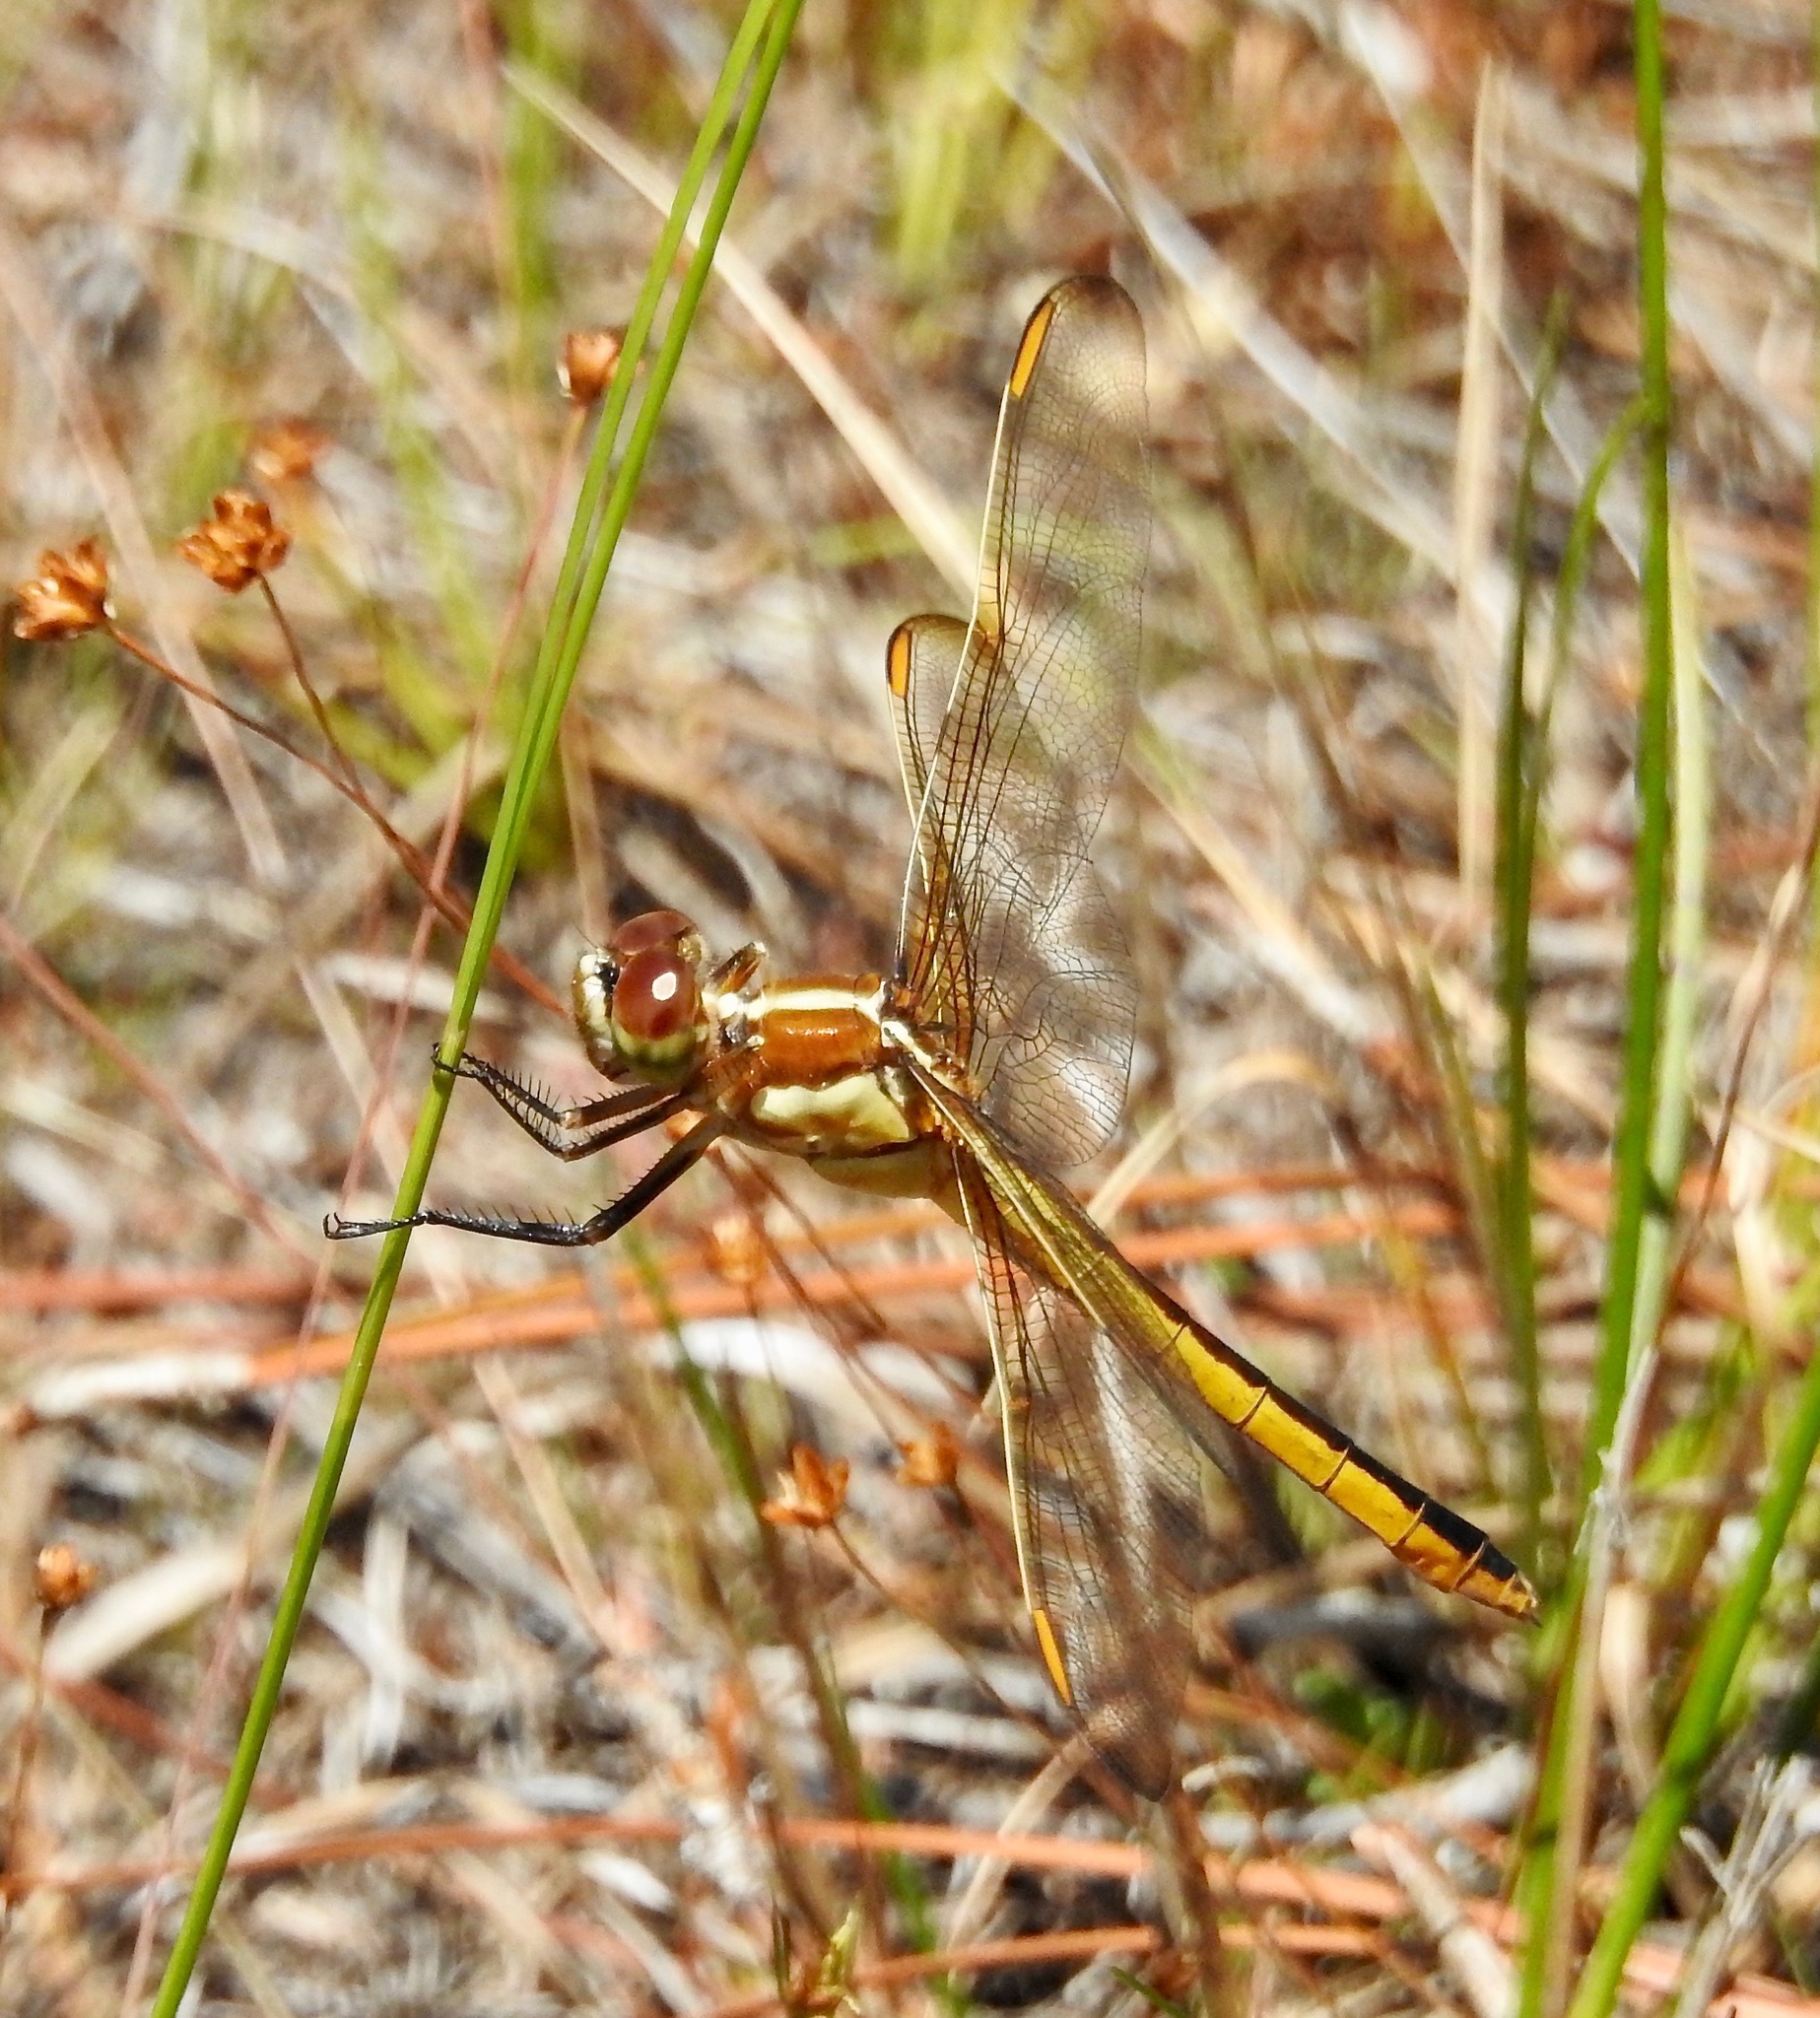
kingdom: Animalia
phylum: Arthropoda
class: Insecta
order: Odonata
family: Libellulidae
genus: Libellula
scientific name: Libellula auripennis
